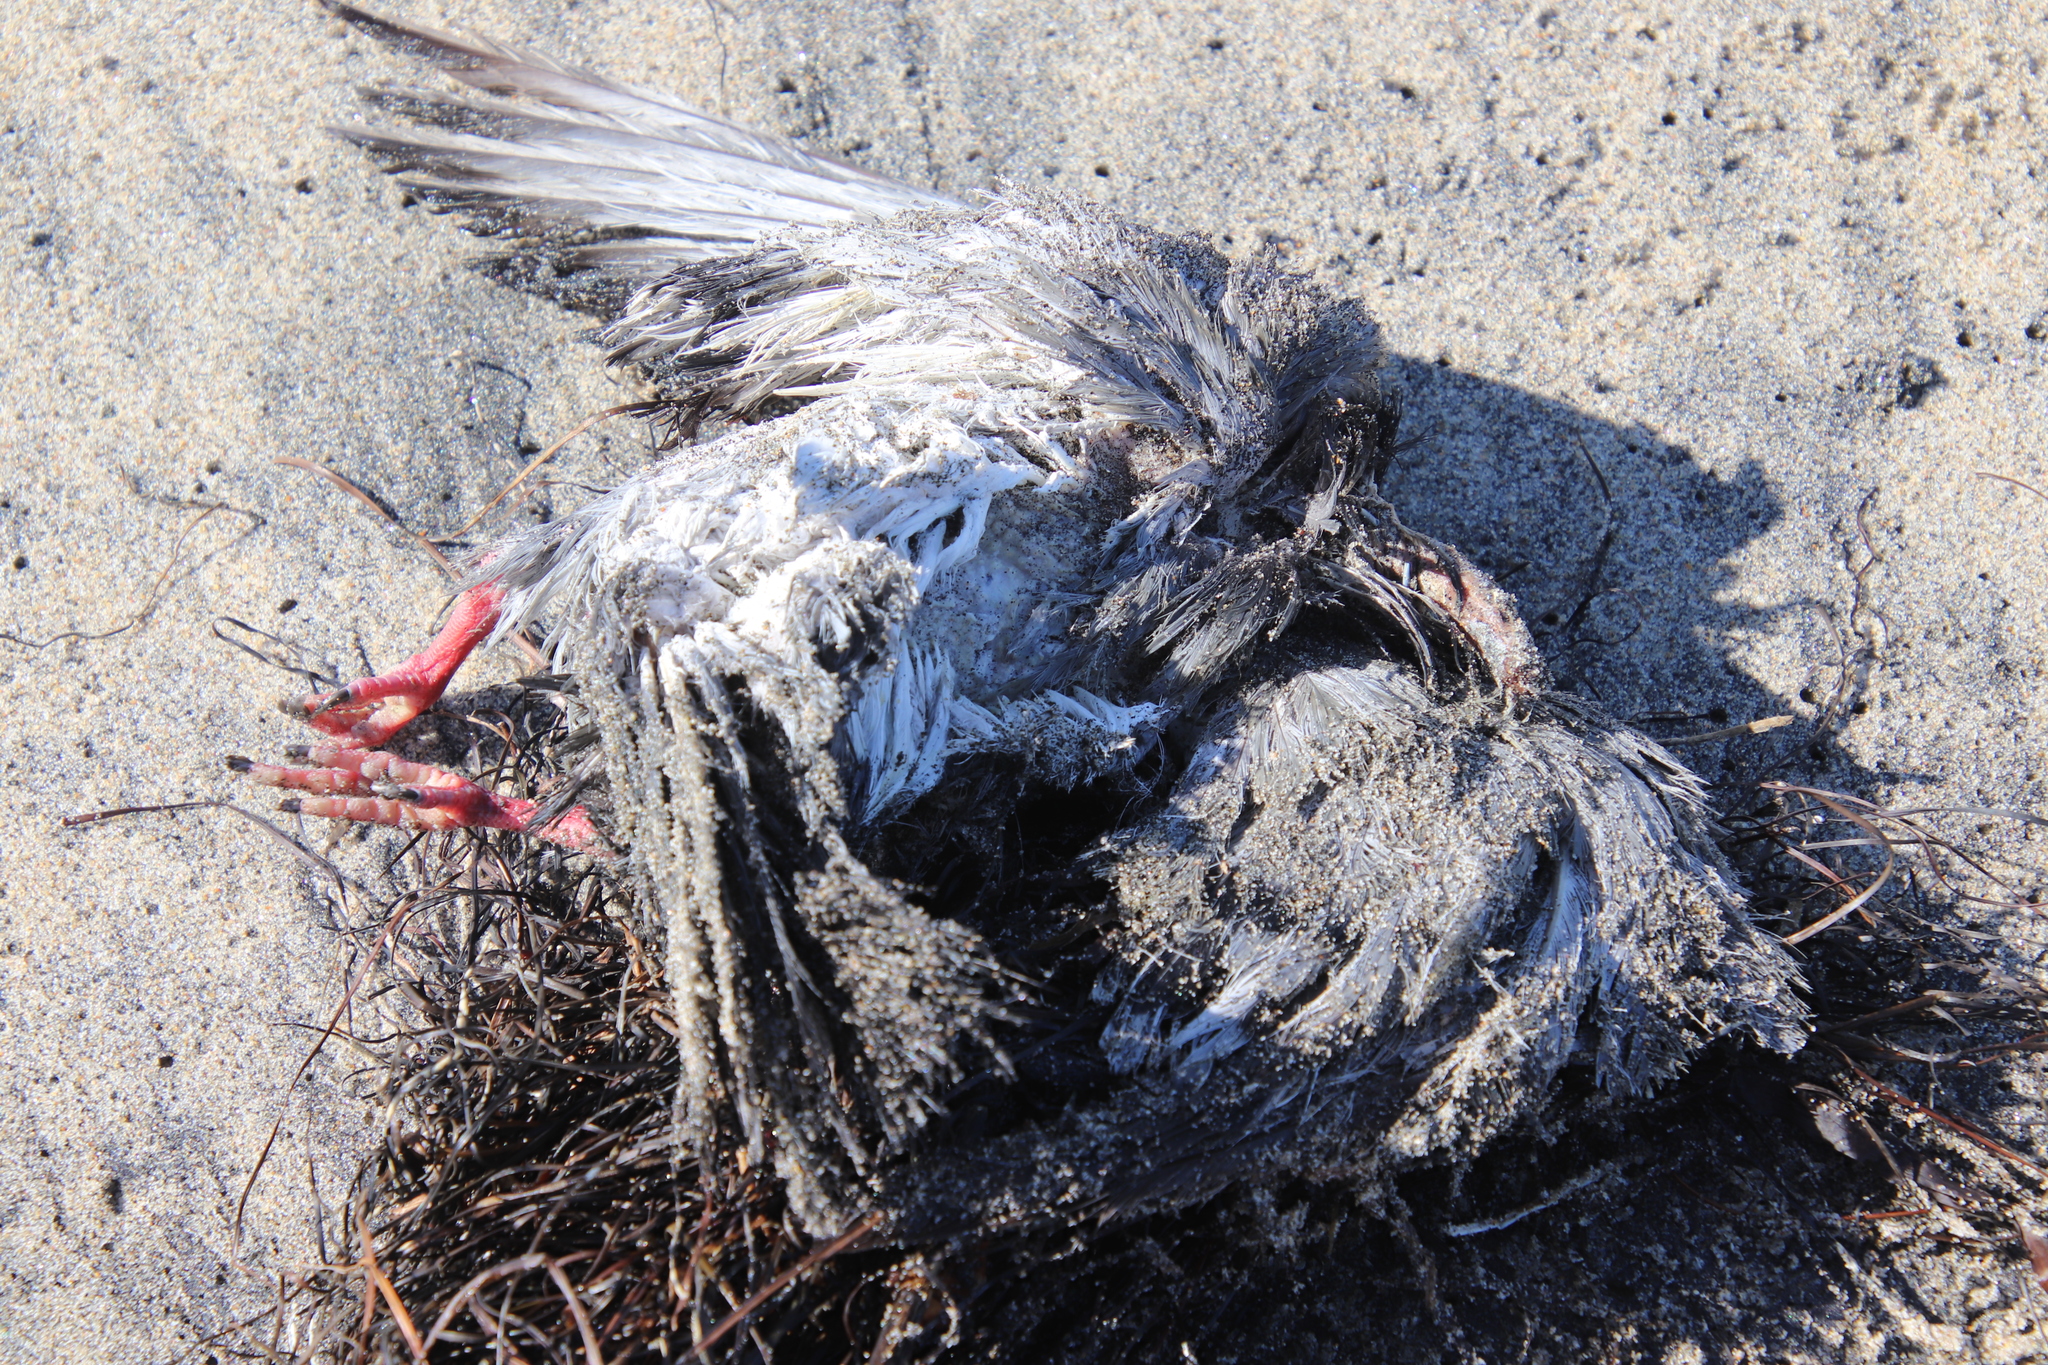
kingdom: Animalia
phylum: Chordata
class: Aves
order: Columbiformes
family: Columbidae
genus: Columba
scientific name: Columba livia
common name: Rock pigeon
